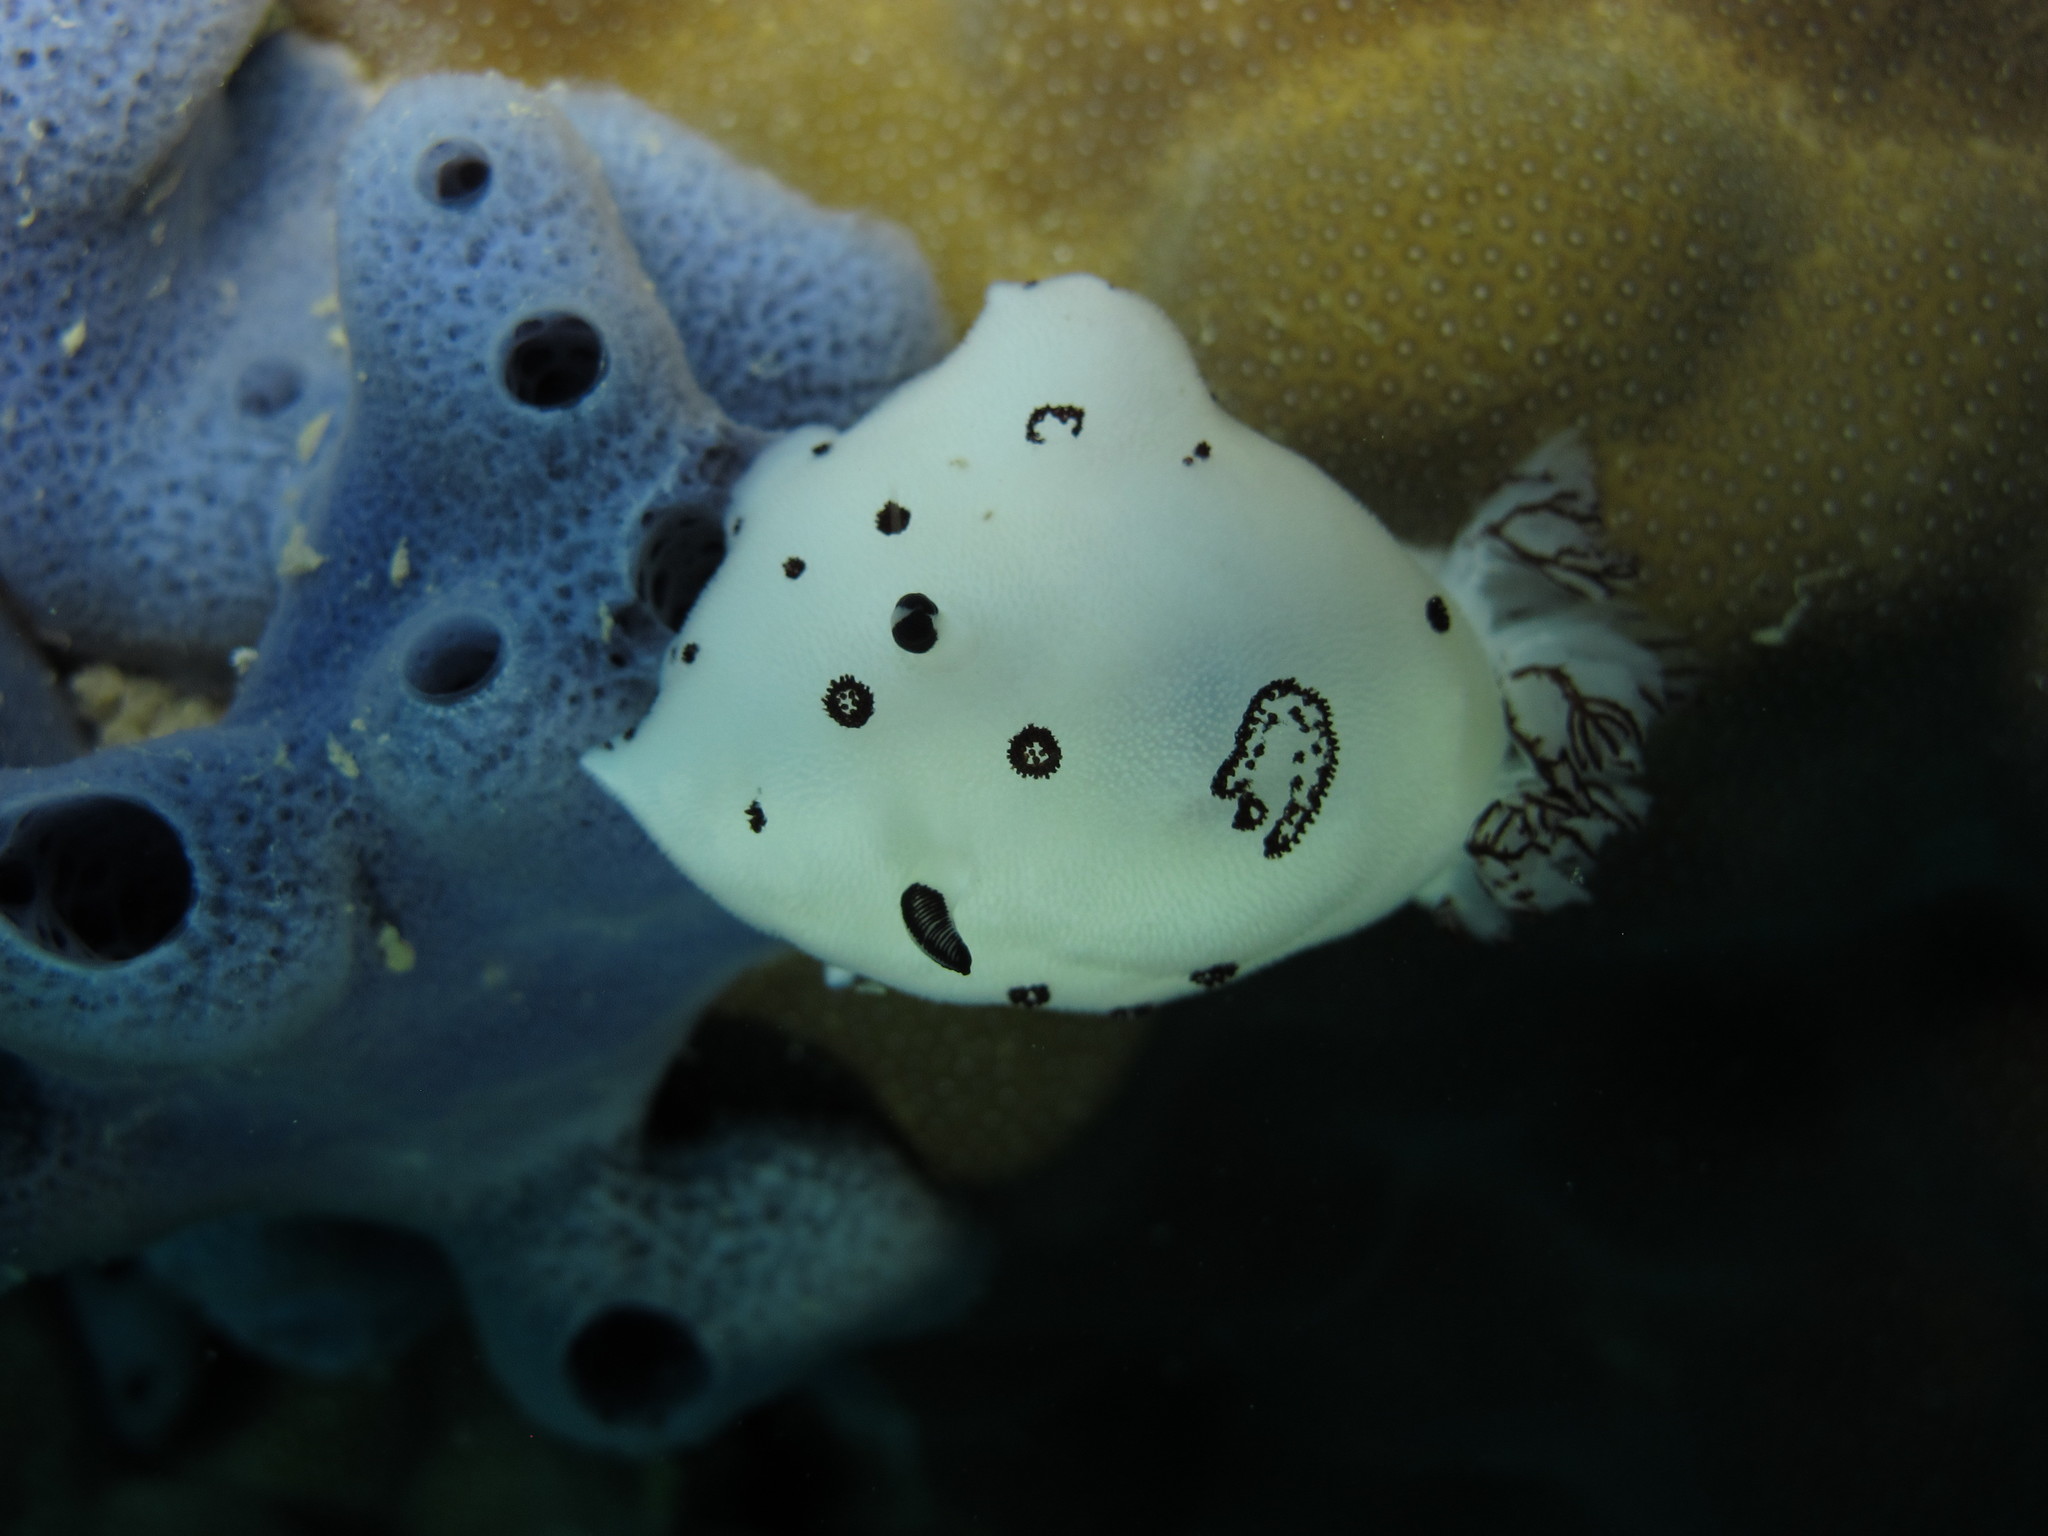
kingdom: Animalia
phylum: Mollusca
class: Gastropoda
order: Nudibranchia
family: Discodorididae
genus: Jorunna
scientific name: Jorunna funebris
